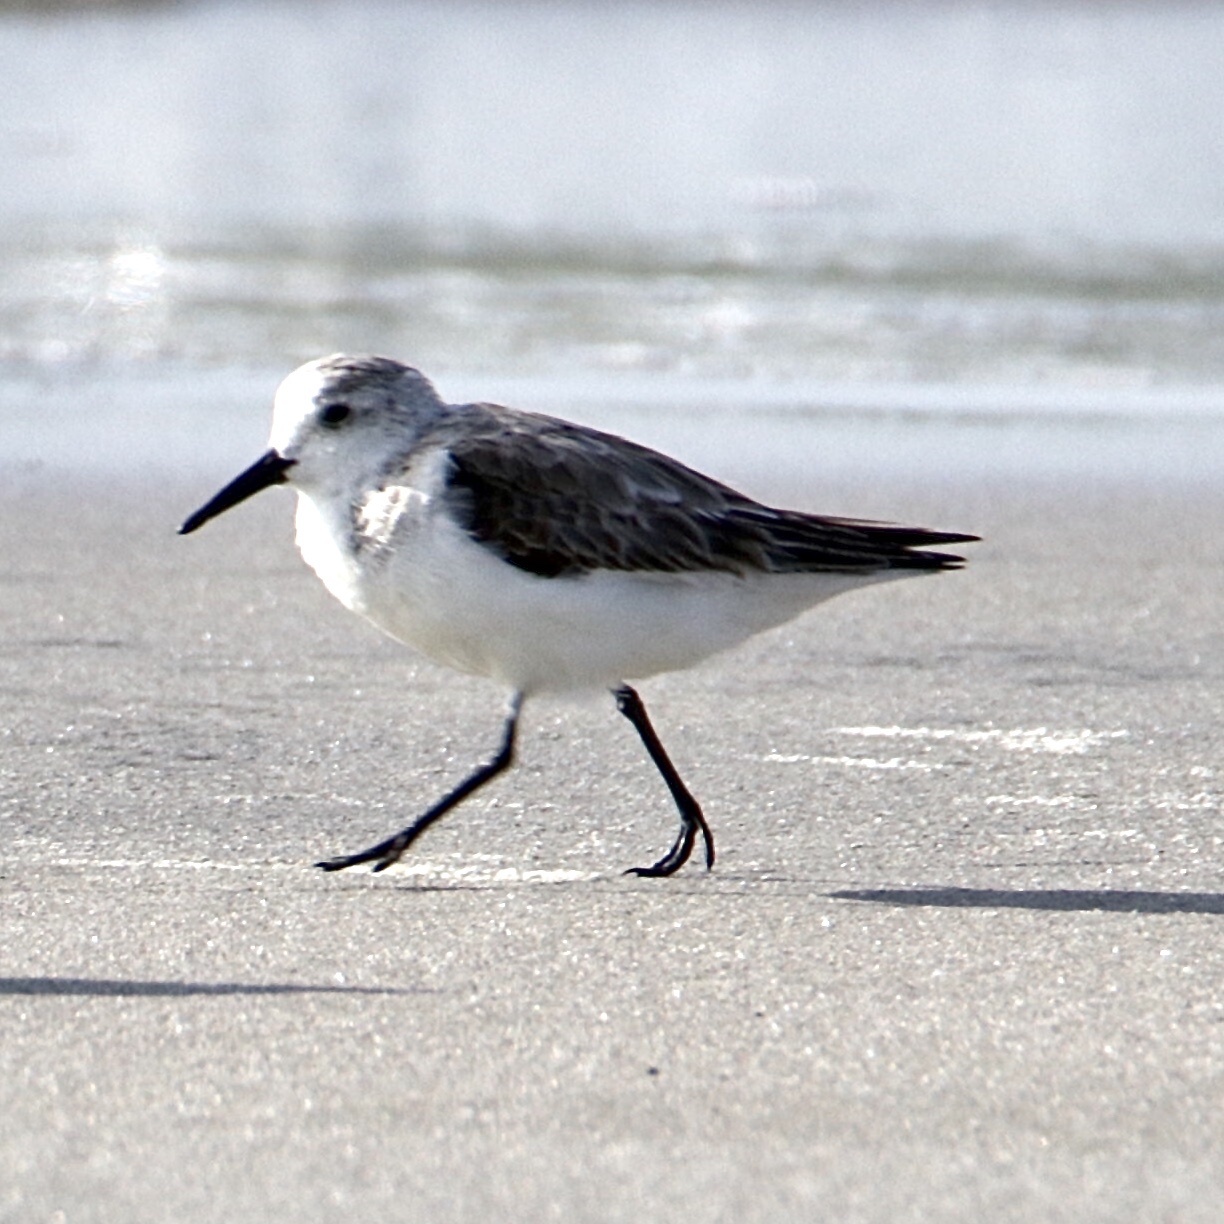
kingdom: Animalia
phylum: Chordata
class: Aves
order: Charadriiformes
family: Scolopacidae
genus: Calidris
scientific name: Calidris alba
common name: Sanderling
